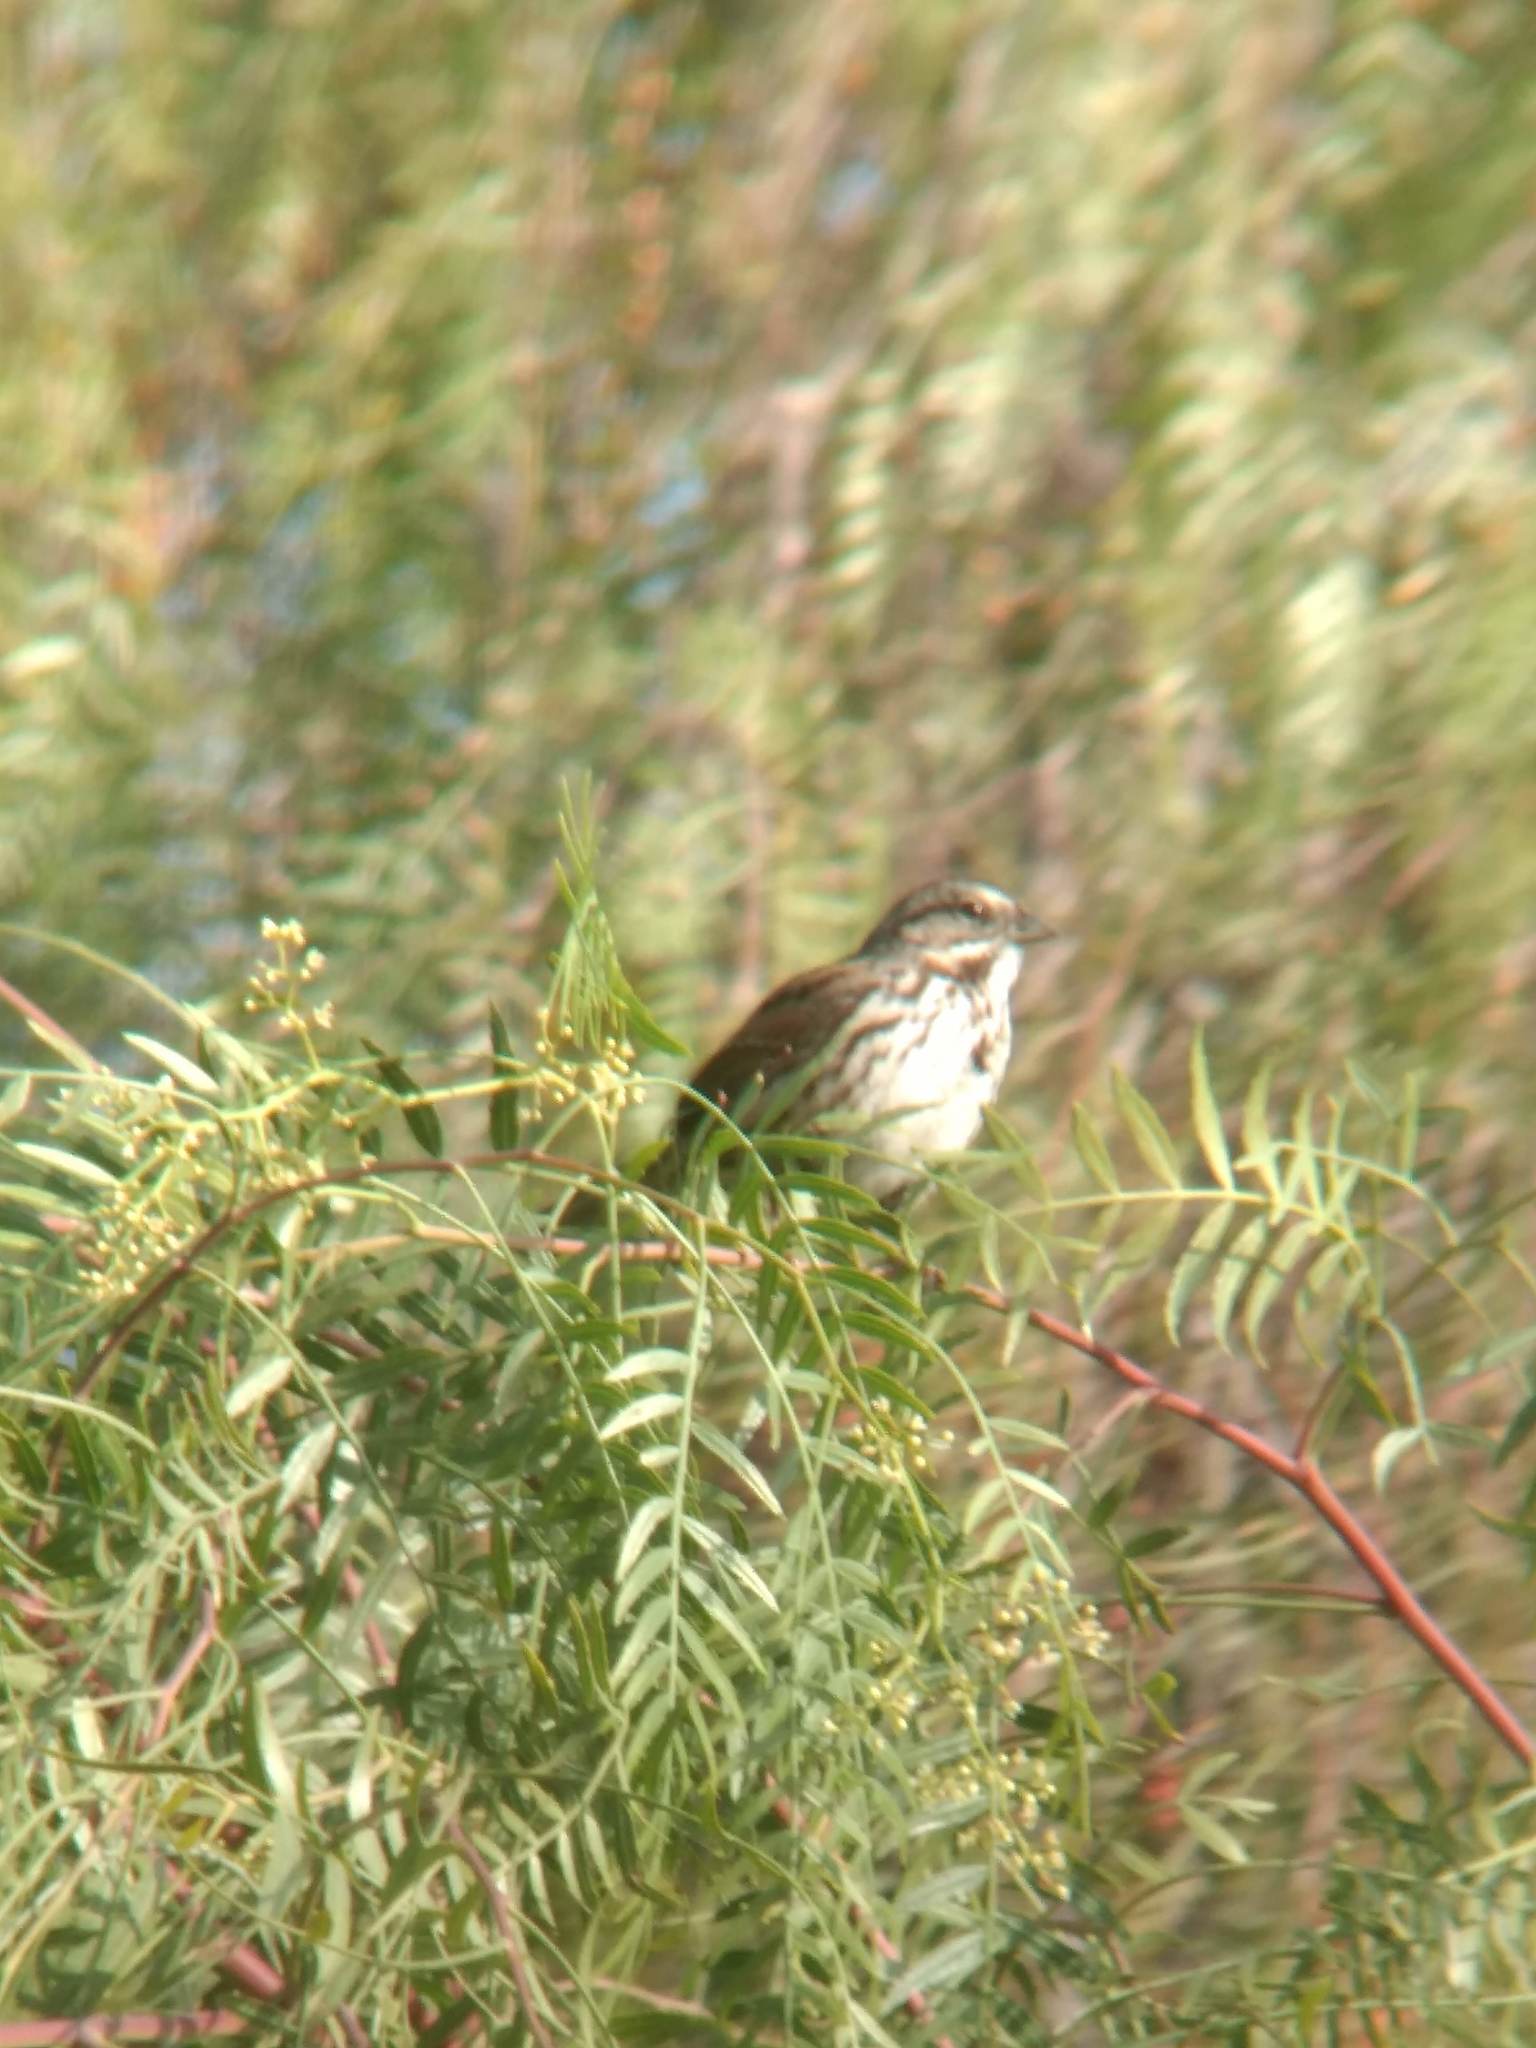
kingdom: Animalia
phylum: Chordata
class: Aves
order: Passeriformes
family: Passerellidae
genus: Melospiza
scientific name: Melospiza melodia
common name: Song sparrow
